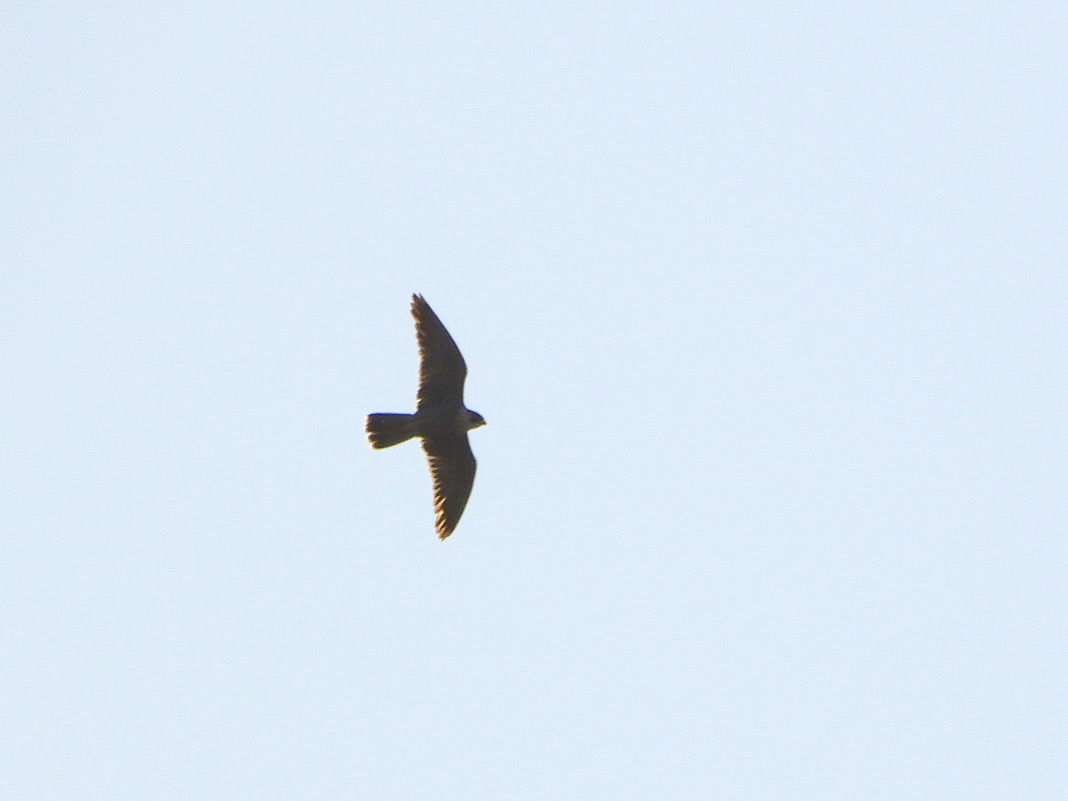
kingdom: Animalia
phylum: Chordata
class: Aves
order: Falconiformes
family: Falconidae
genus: Falco
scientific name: Falco peregrinus
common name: Peregrine falcon
